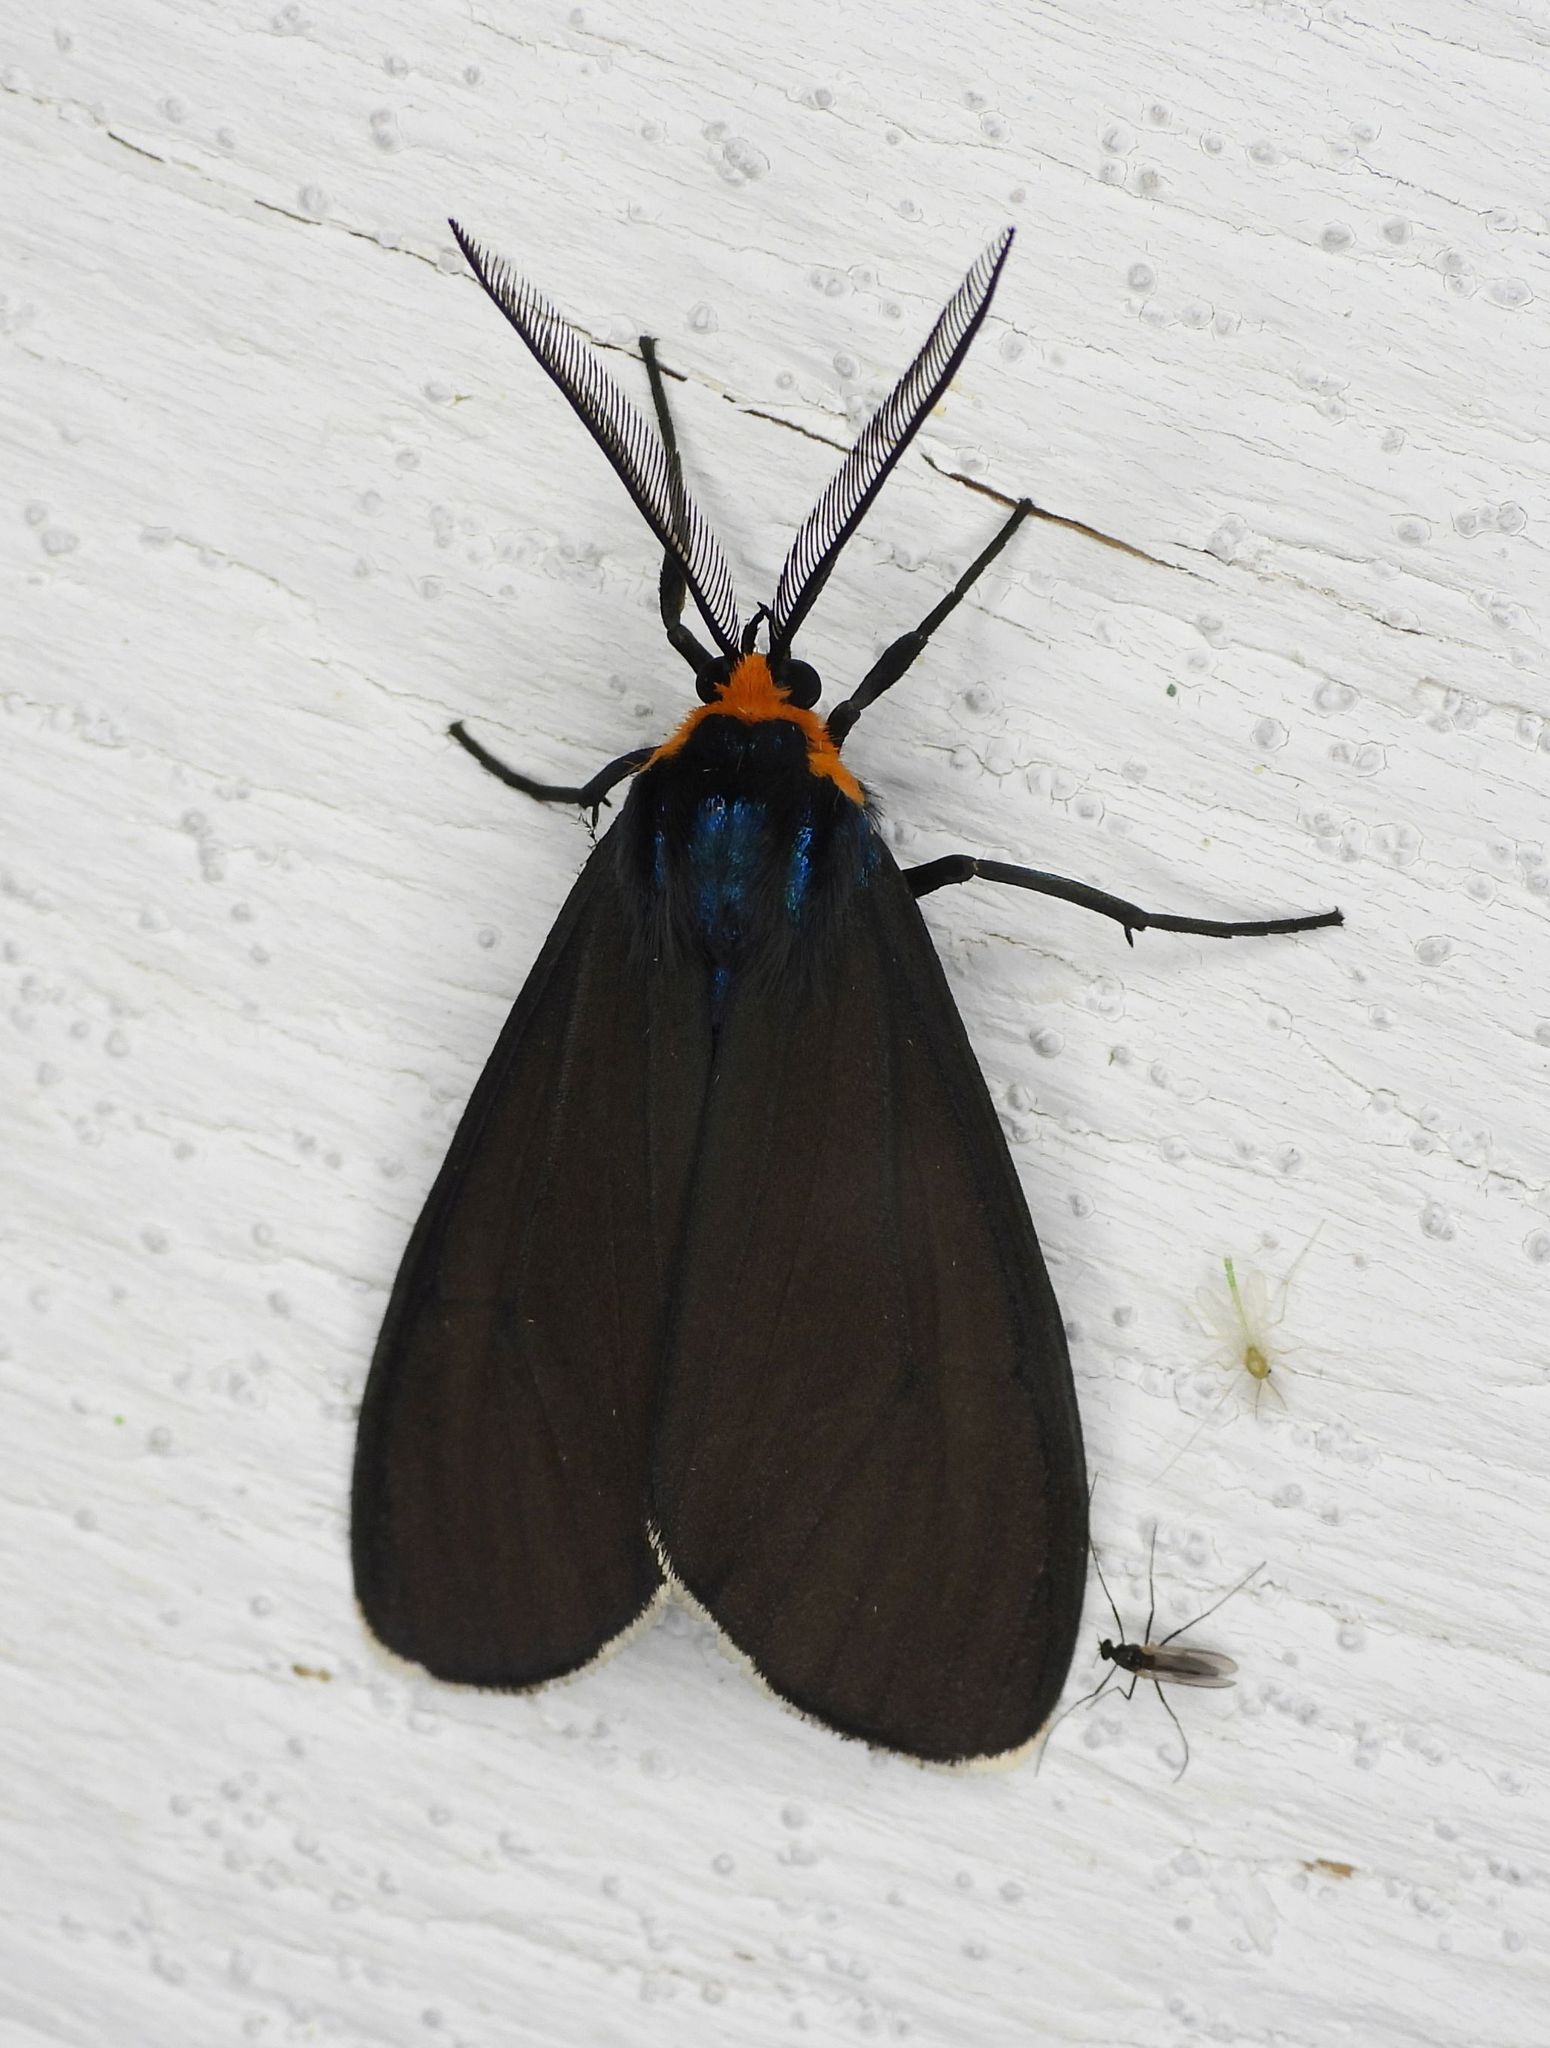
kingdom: Animalia
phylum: Arthropoda
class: Insecta
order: Lepidoptera
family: Erebidae
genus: Ctenucha
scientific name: Ctenucha virginica
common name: Virginia ctenucha moth
